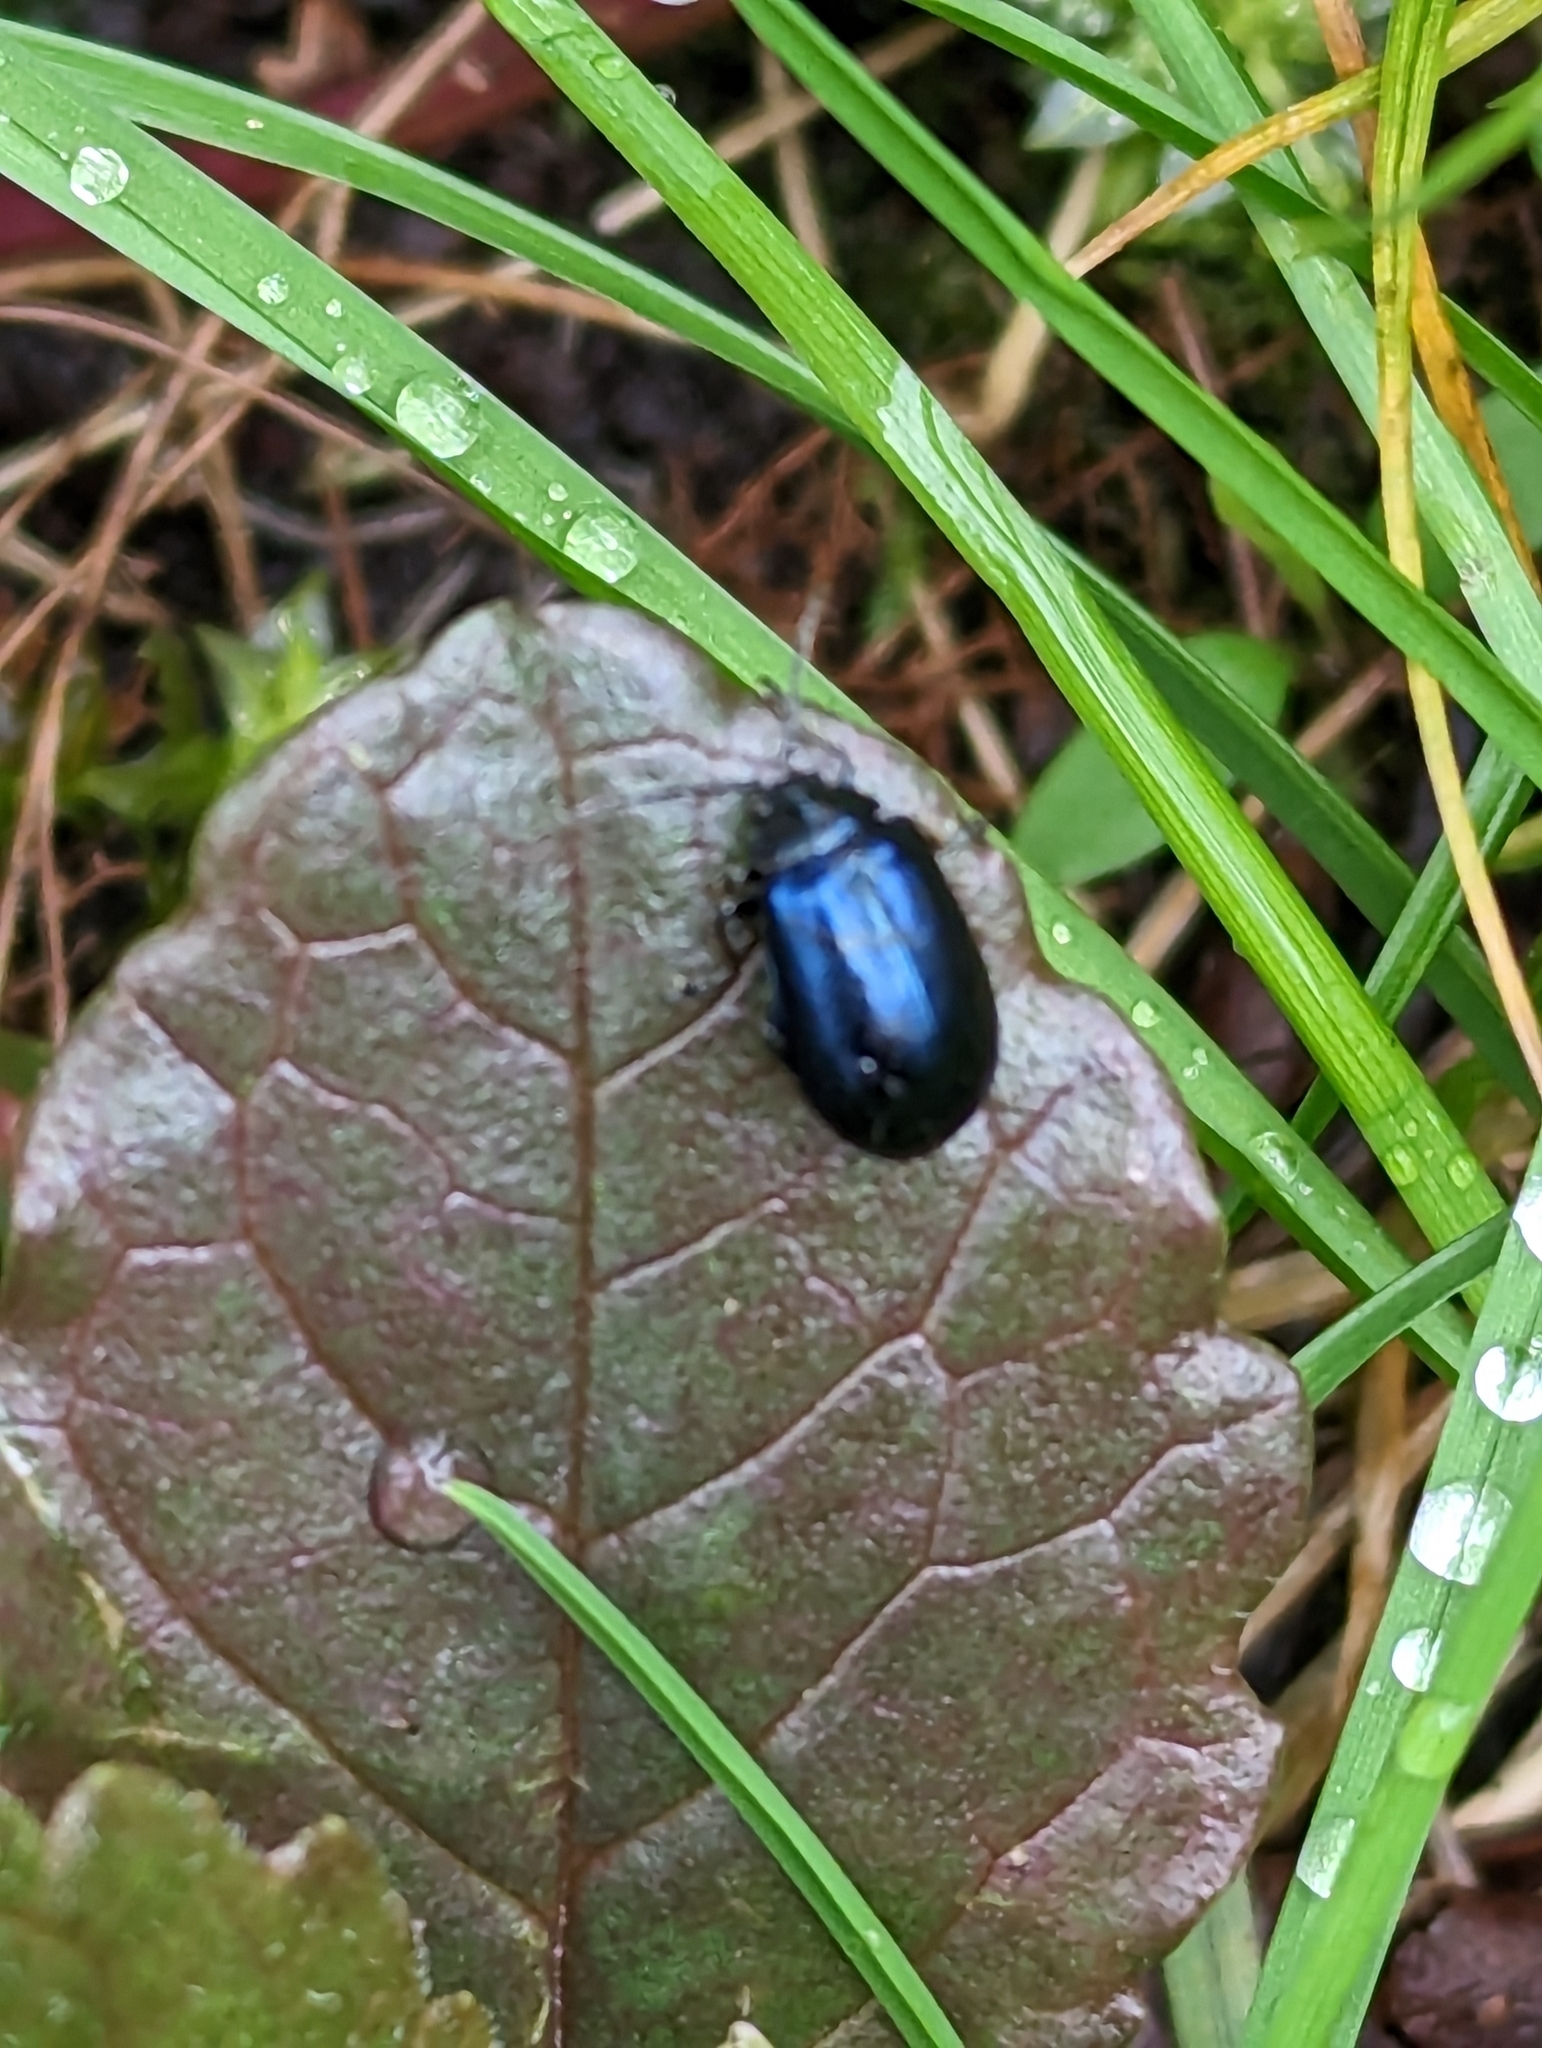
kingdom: Animalia
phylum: Arthropoda
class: Insecta
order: Coleoptera
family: Chrysomelidae
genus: Agelastica
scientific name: Agelastica alni
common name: Alder leaf beetle
